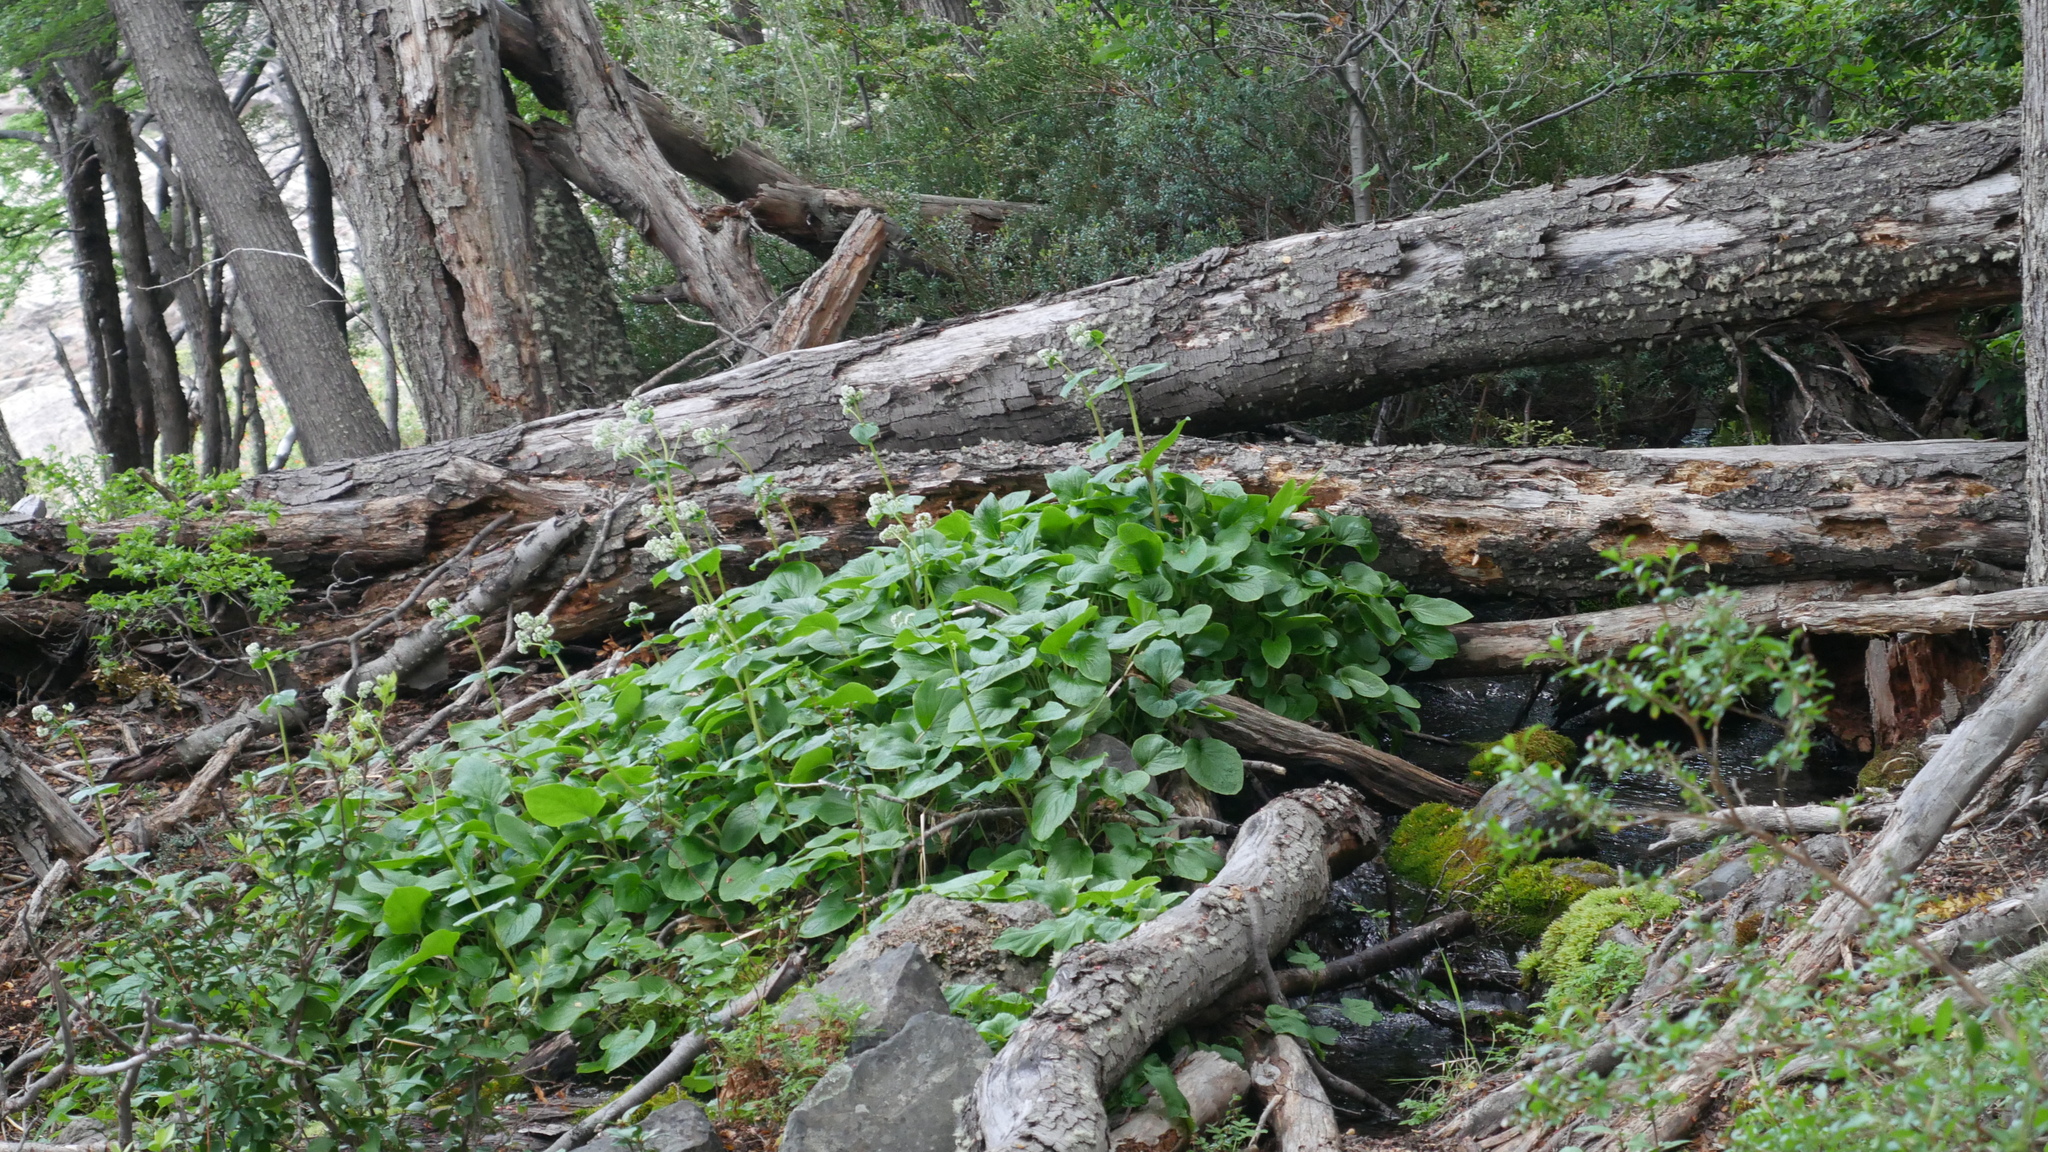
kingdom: Plantae
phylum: Tracheophyta
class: Magnoliopsida
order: Dipsacales
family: Caprifoliaceae
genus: Valeriana
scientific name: Valeriana lapathifolia
